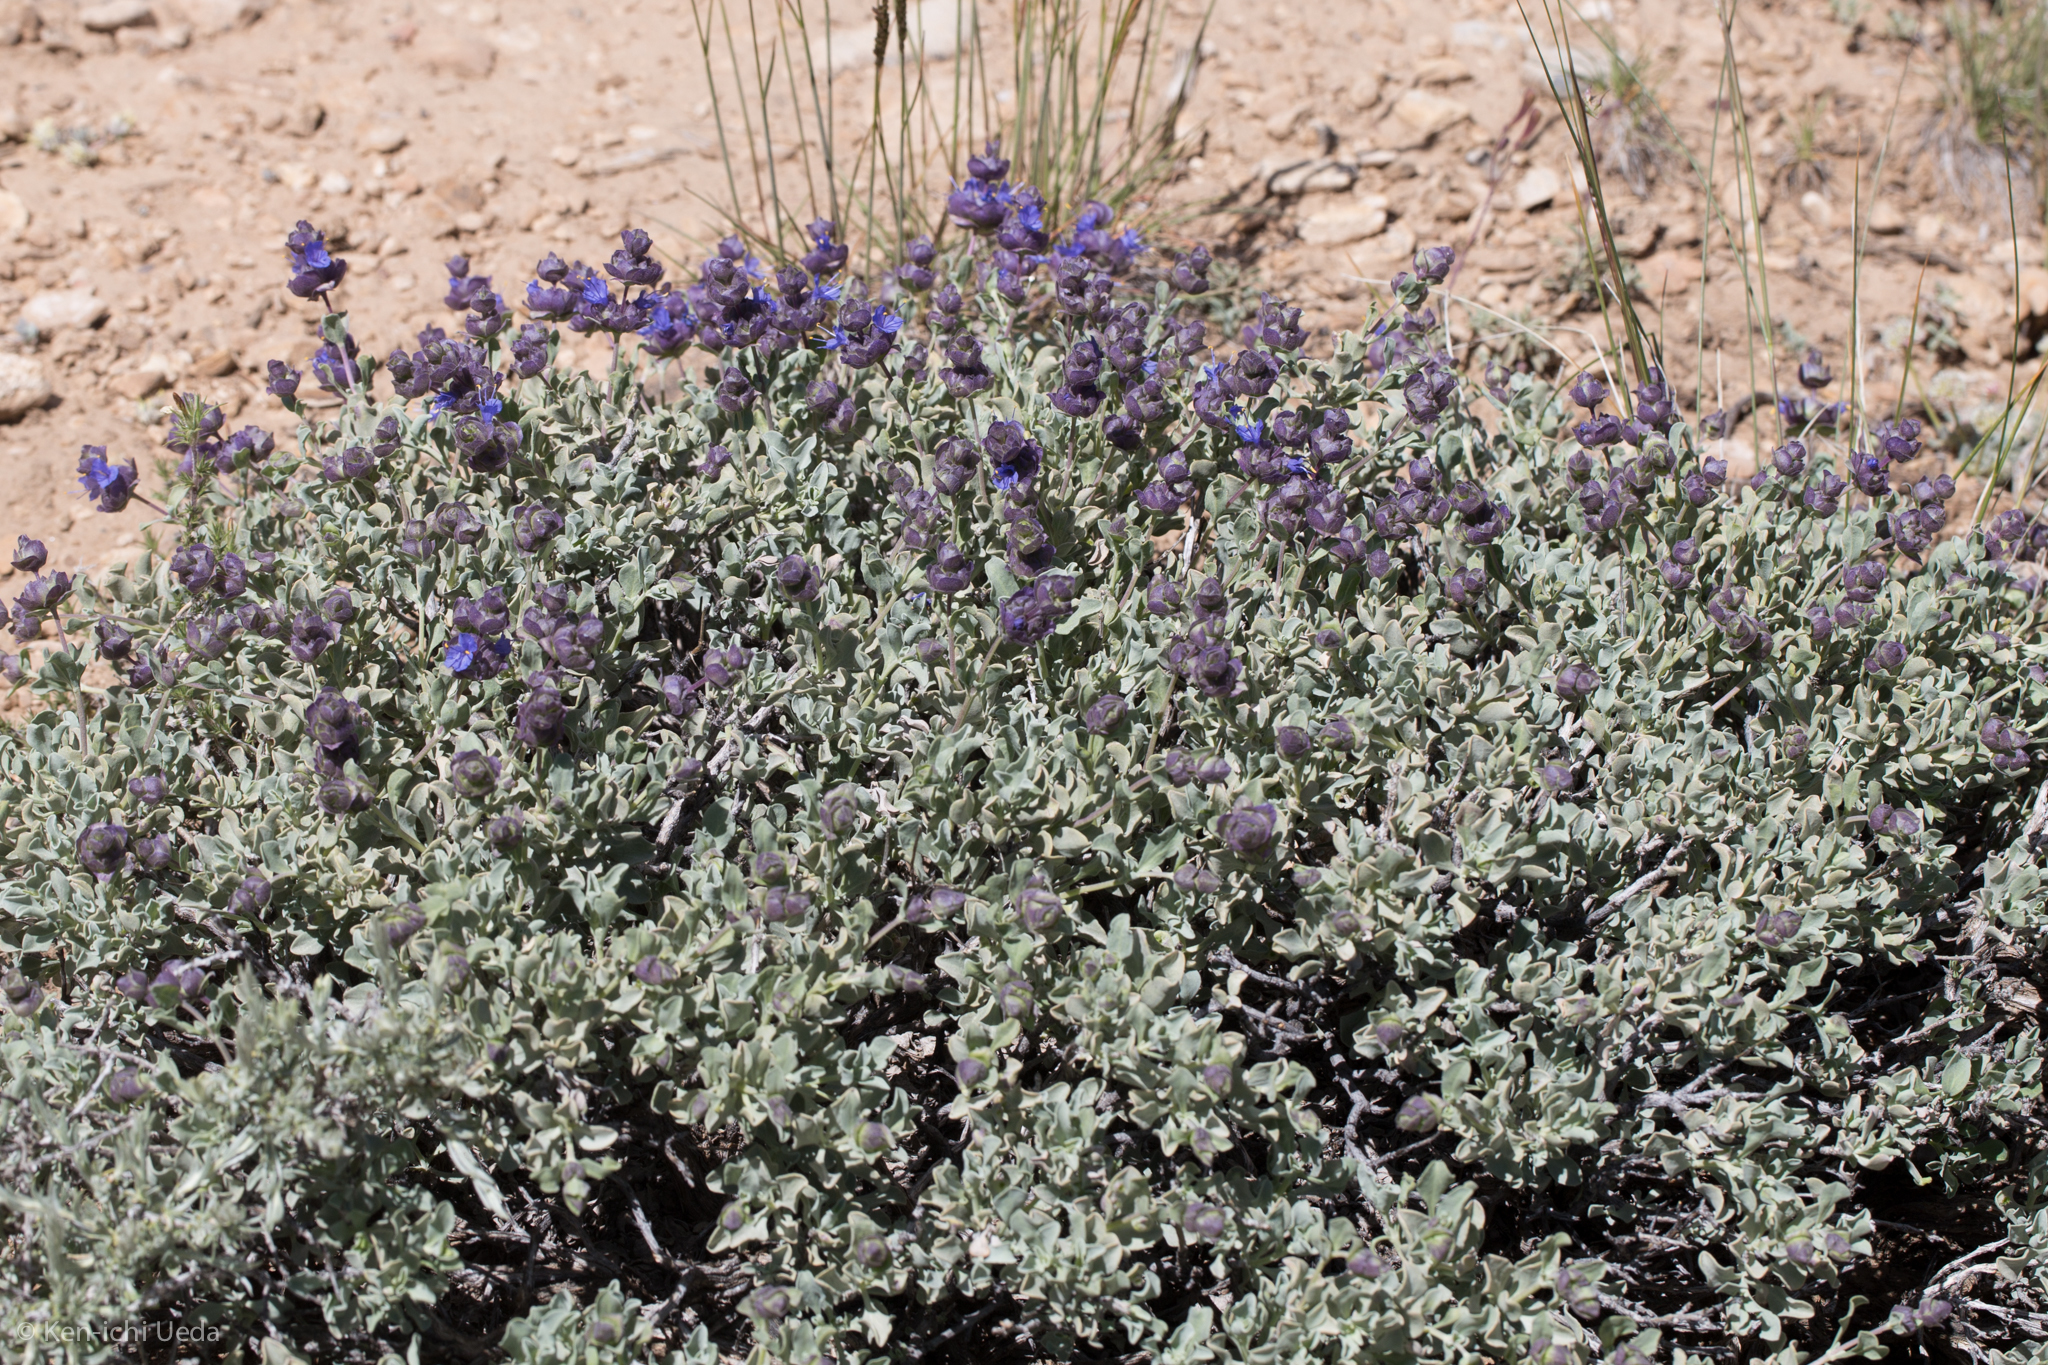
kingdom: Plantae
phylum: Tracheophyta
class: Magnoliopsida
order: Lamiales
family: Lamiaceae
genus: Salvia
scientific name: Salvia dorrii
